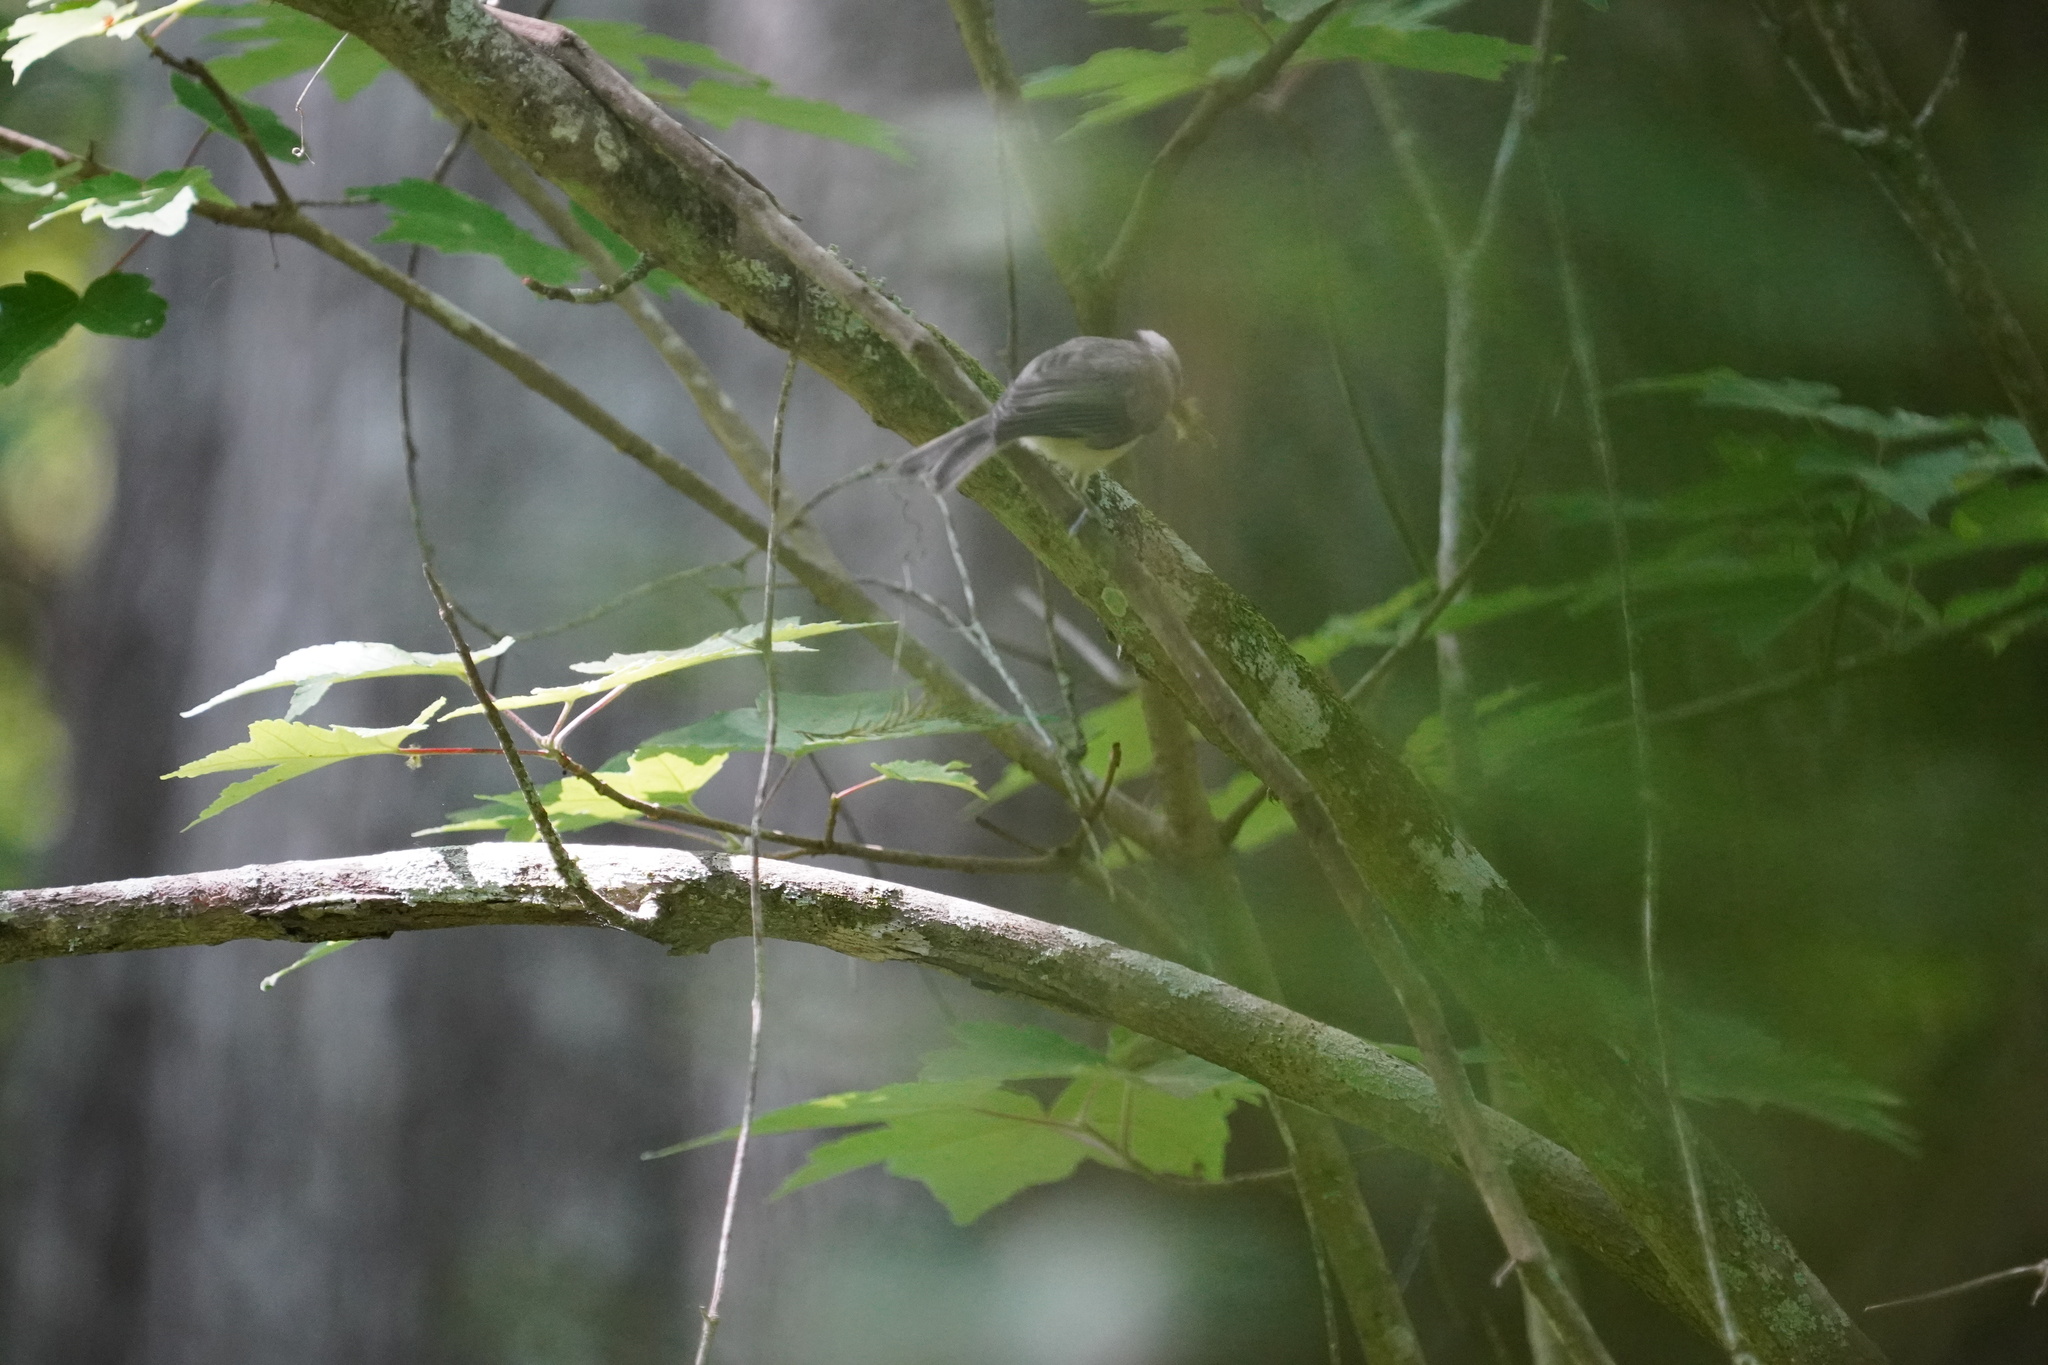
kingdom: Animalia
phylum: Chordata
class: Aves
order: Passeriformes
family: Paridae
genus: Poecile
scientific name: Poecile carolinensis
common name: Carolina chickadee
